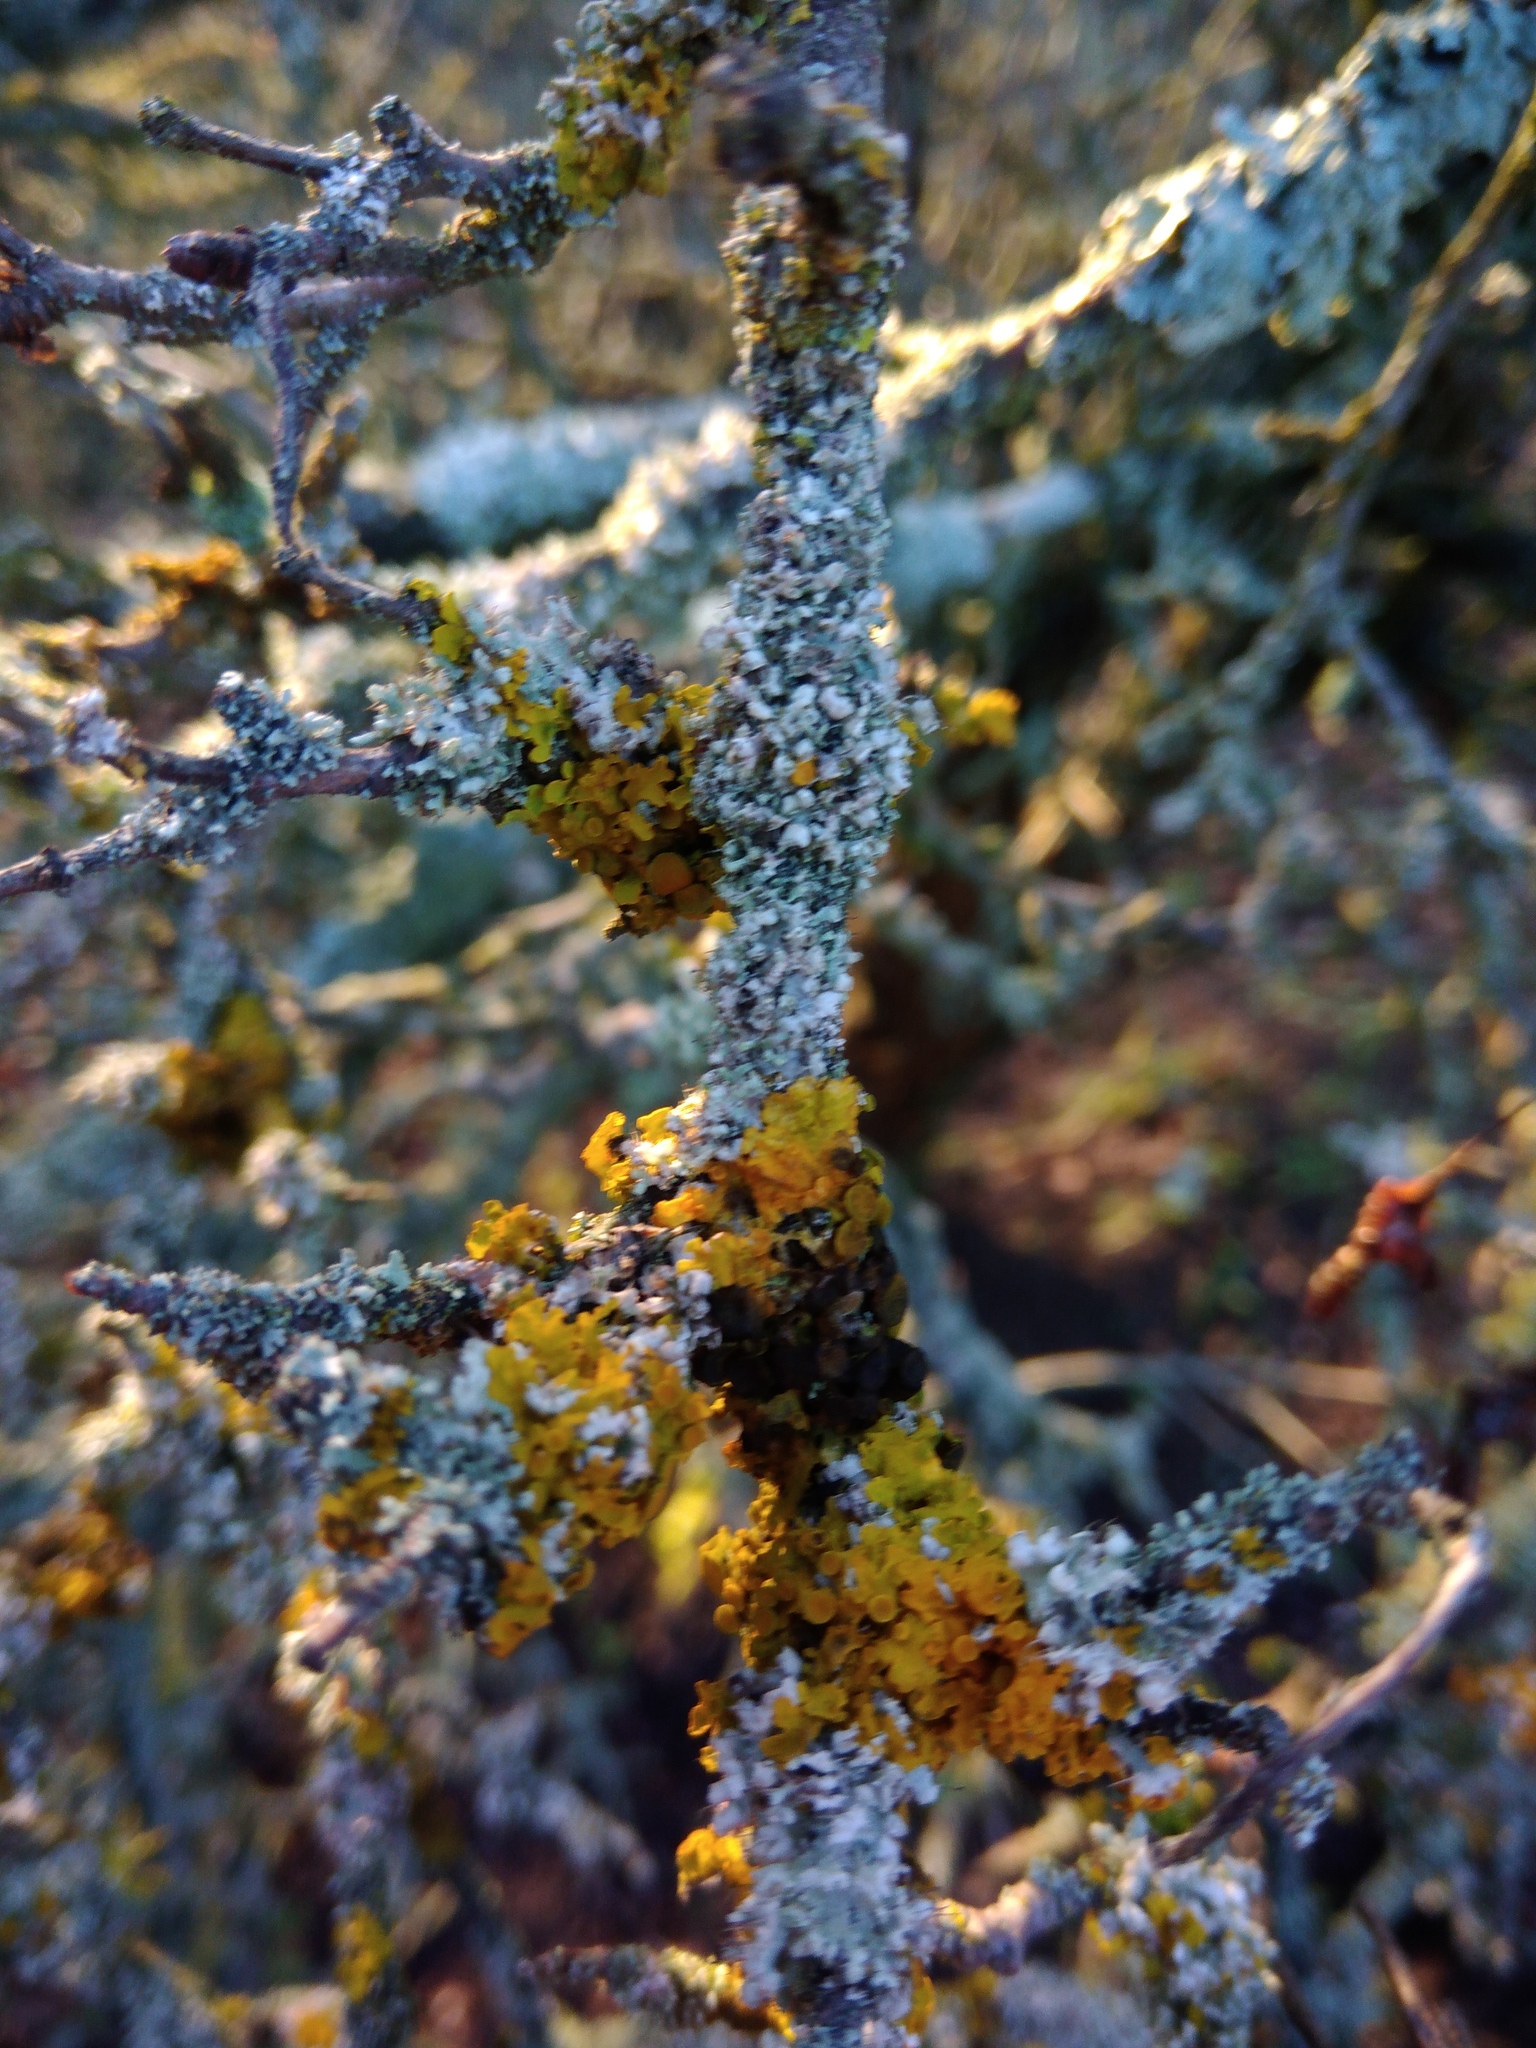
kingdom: Fungi
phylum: Ascomycota
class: Dothideomycetes
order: Mycosphaerellales
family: Teratosphaeriaceae
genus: Xanthoriicola
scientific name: Xanthoriicola physciae
